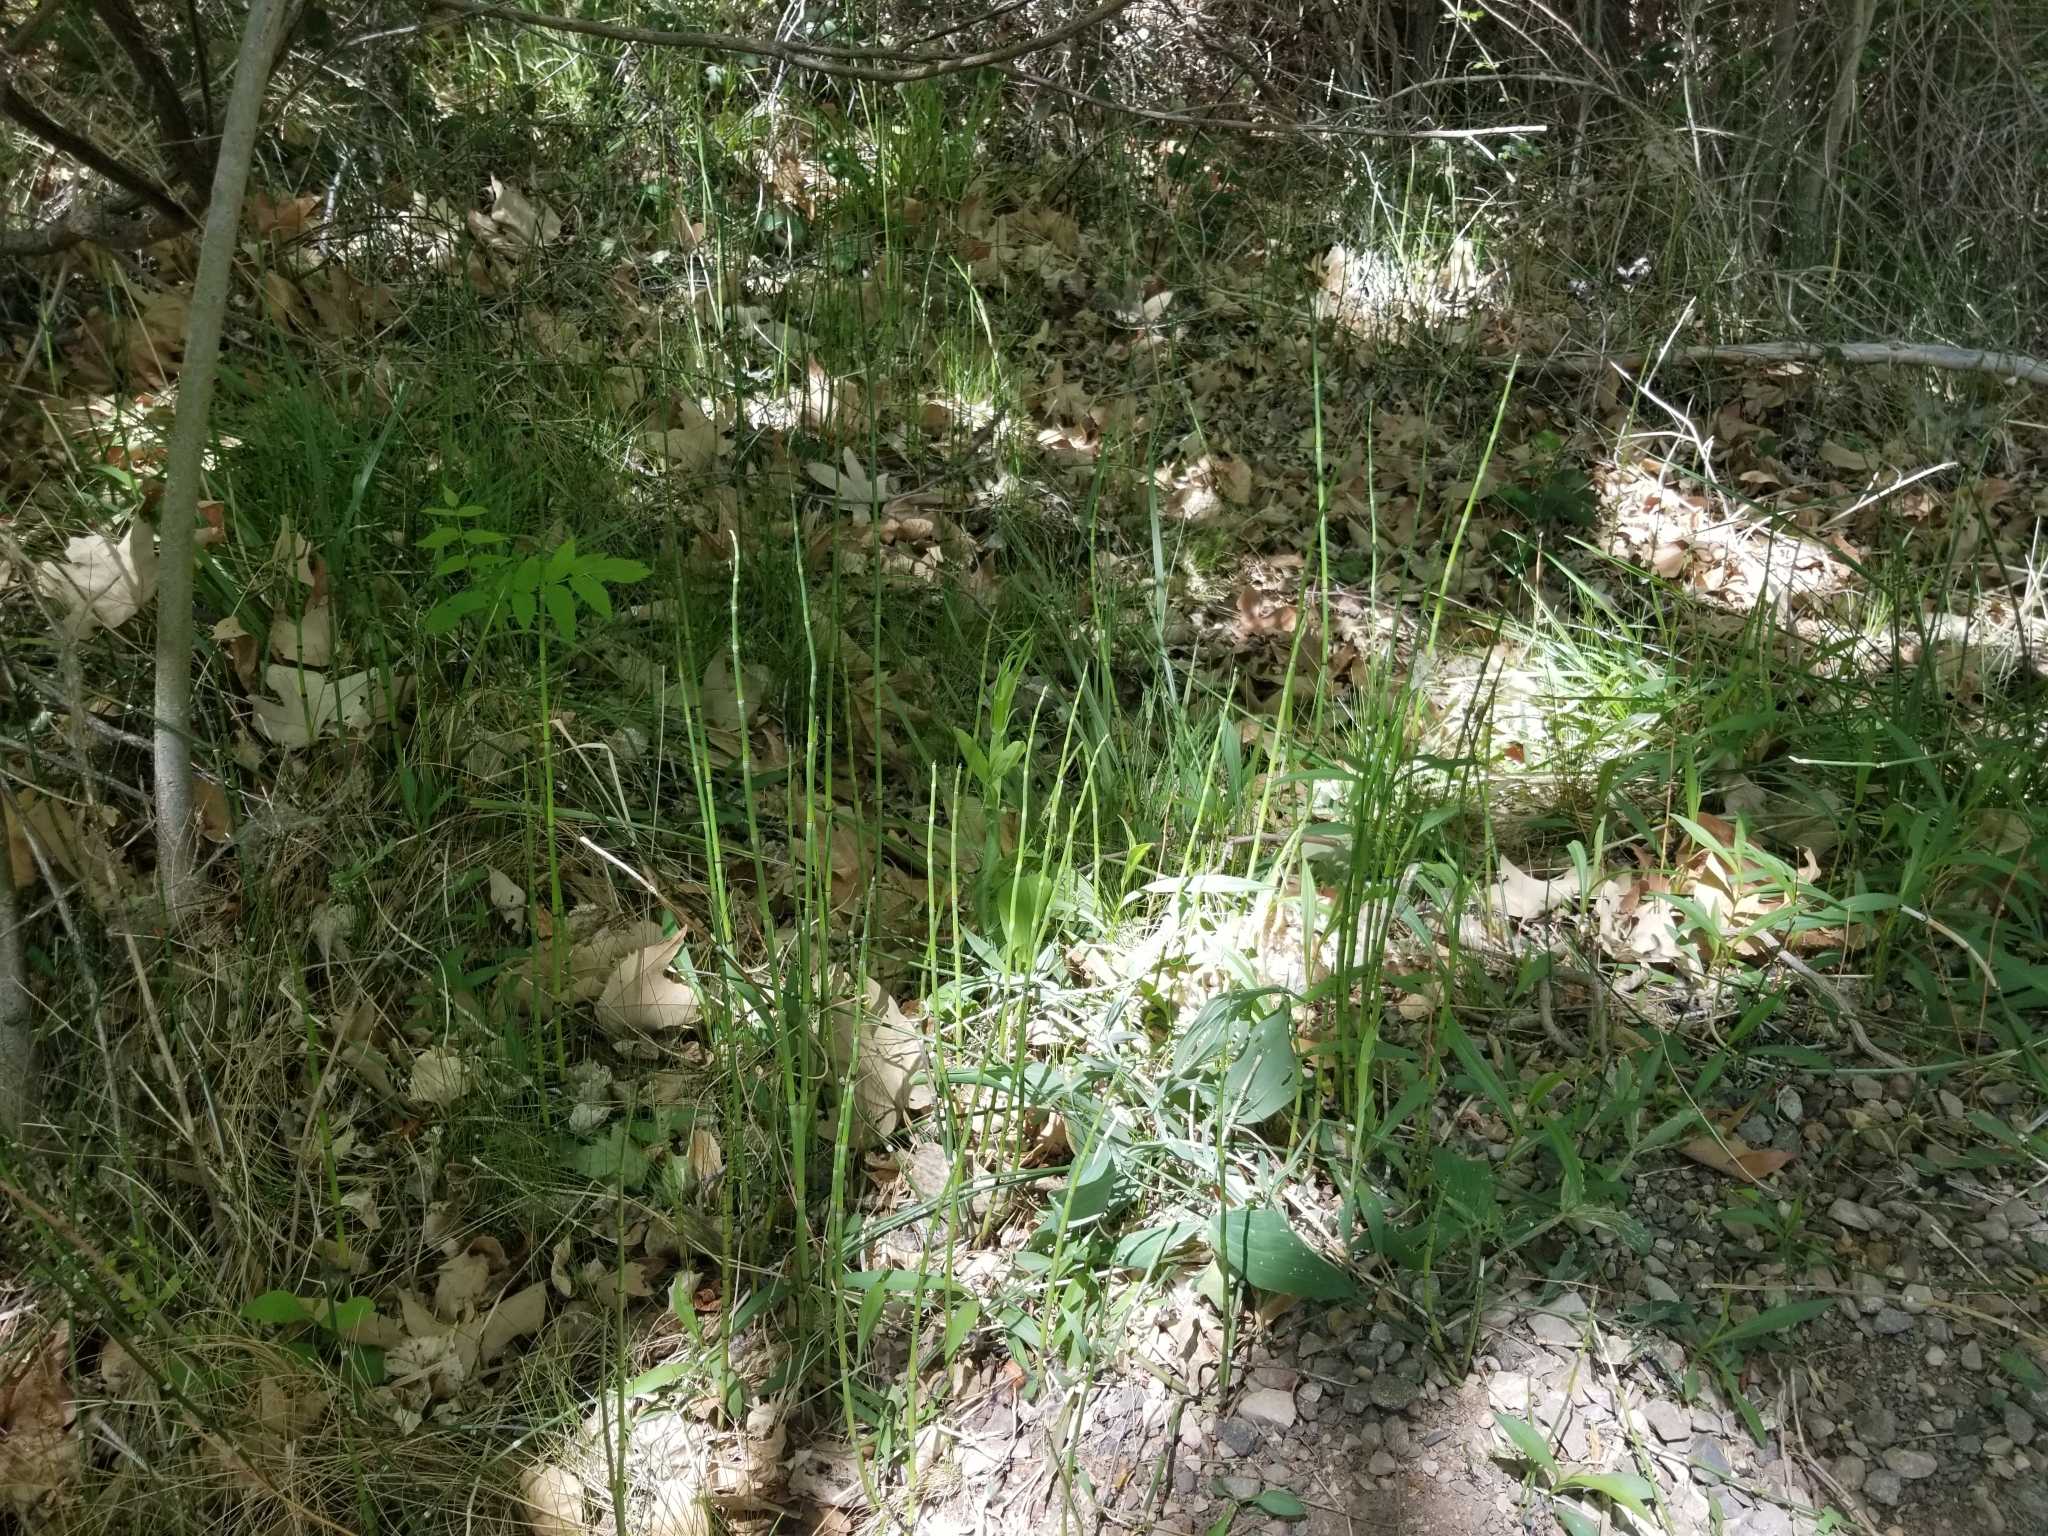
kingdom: Plantae
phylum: Tracheophyta
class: Polypodiopsida
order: Equisetales
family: Equisetaceae
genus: Equisetum
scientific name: Equisetum hyemale
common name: Rough horsetail
